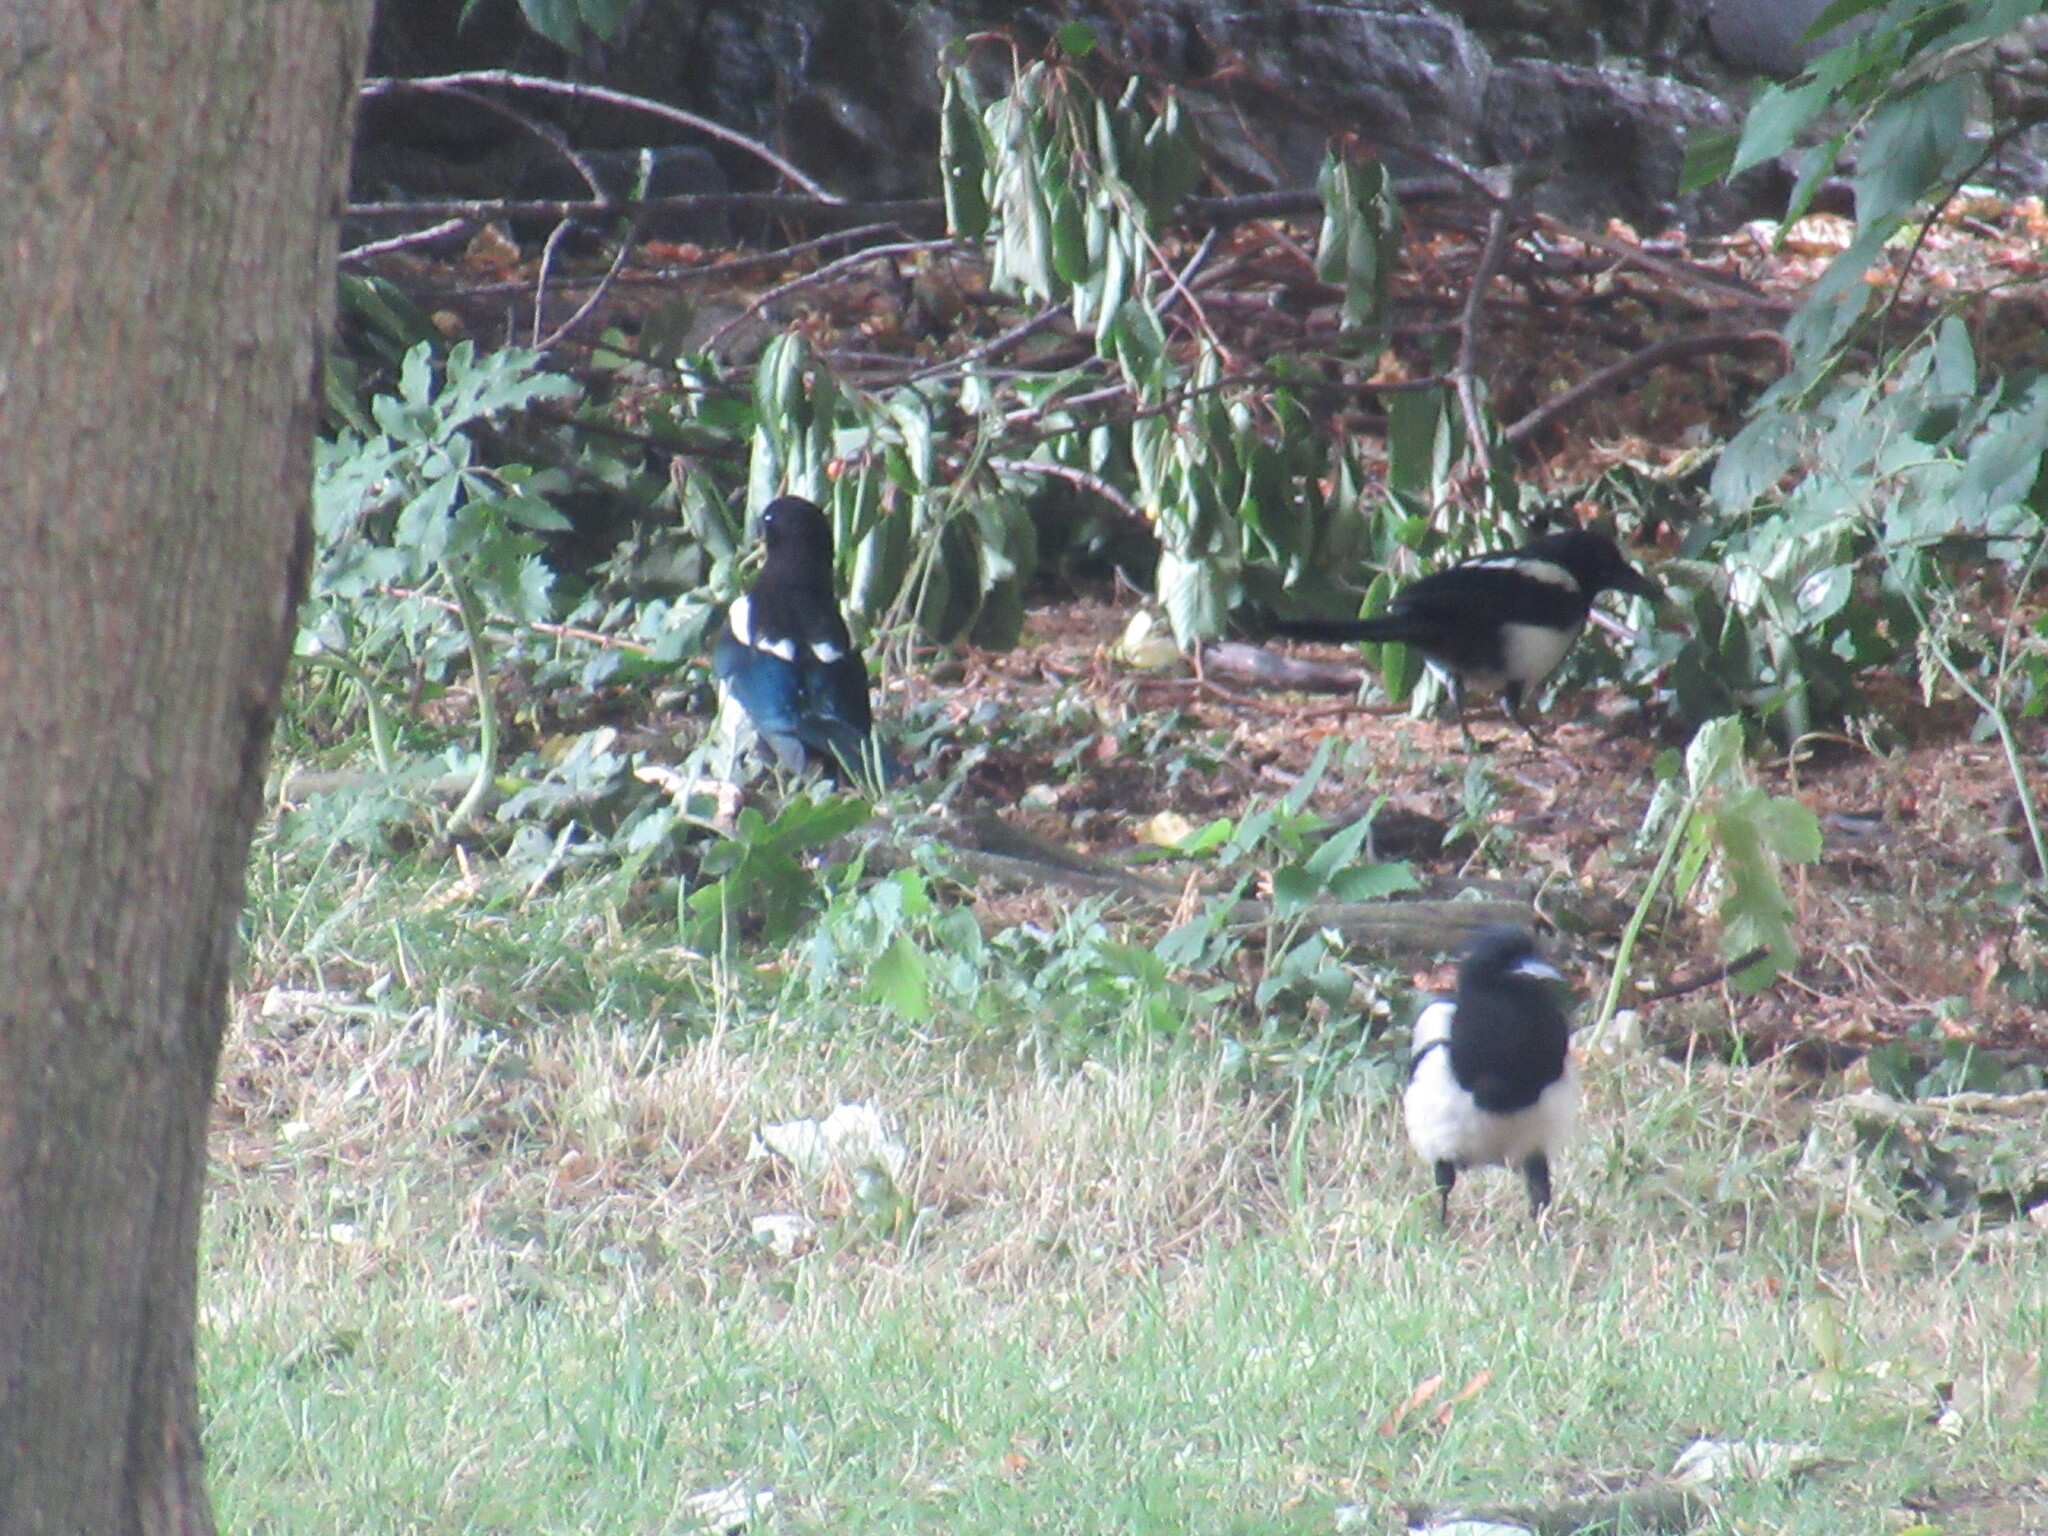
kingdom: Animalia
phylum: Chordata
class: Aves
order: Passeriformes
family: Corvidae
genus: Pica
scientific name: Pica pica
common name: Eurasian magpie
